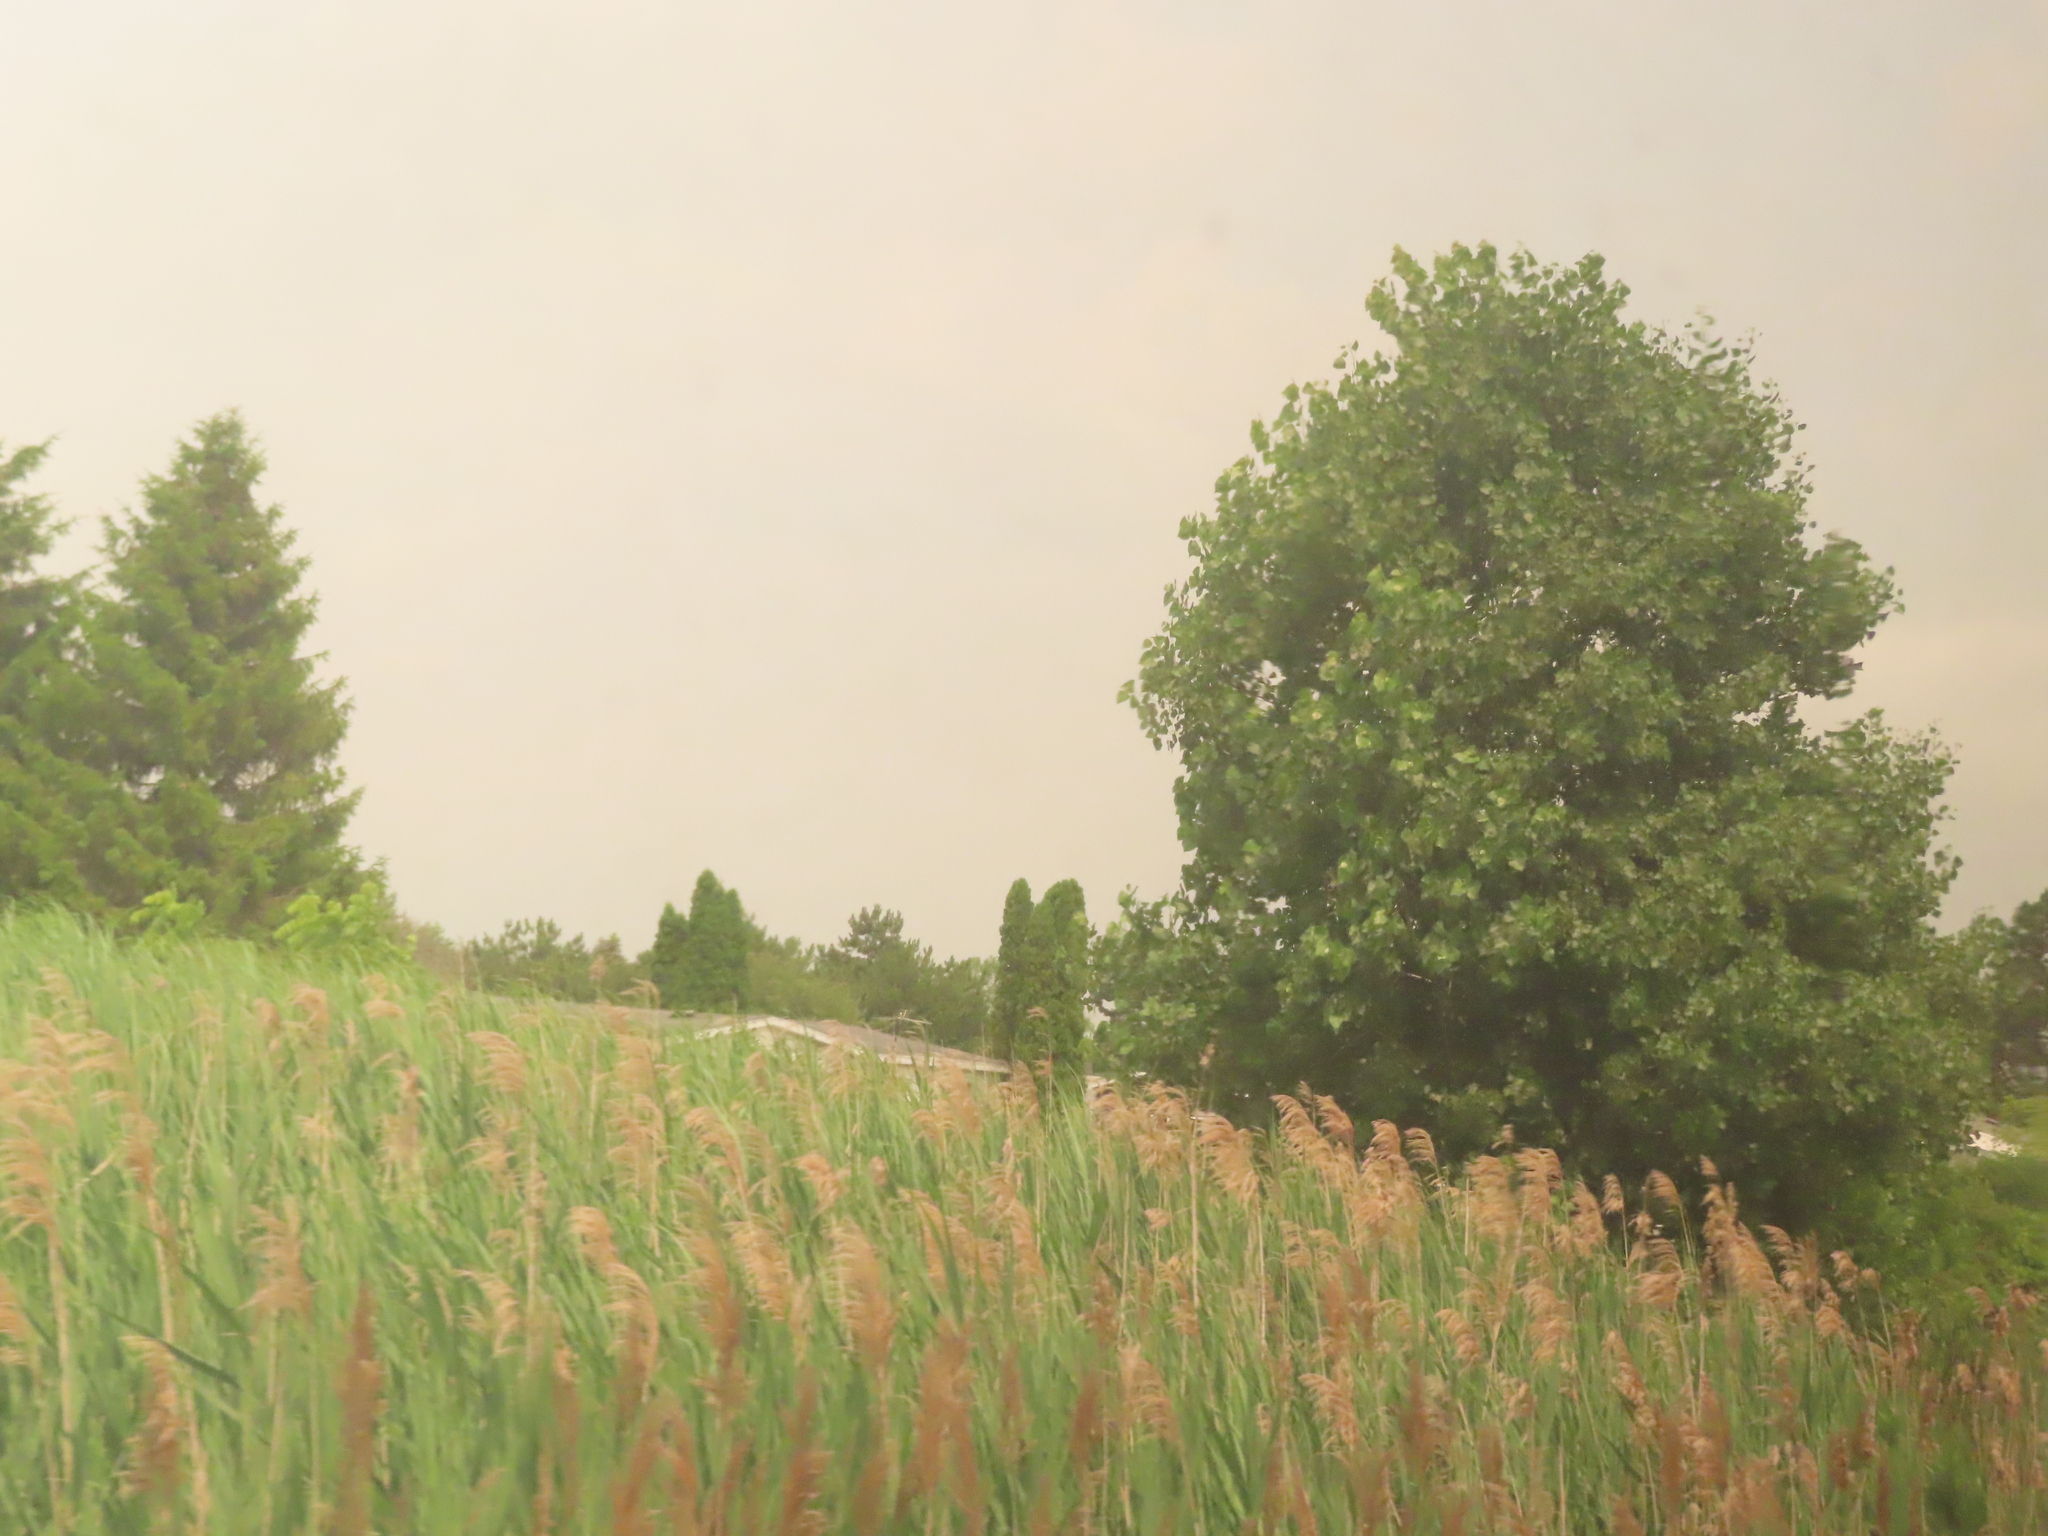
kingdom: Plantae
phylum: Tracheophyta
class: Liliopsida
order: Poales
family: Poaceae
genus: Phragmites
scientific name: Phragmites australis
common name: Common reed
